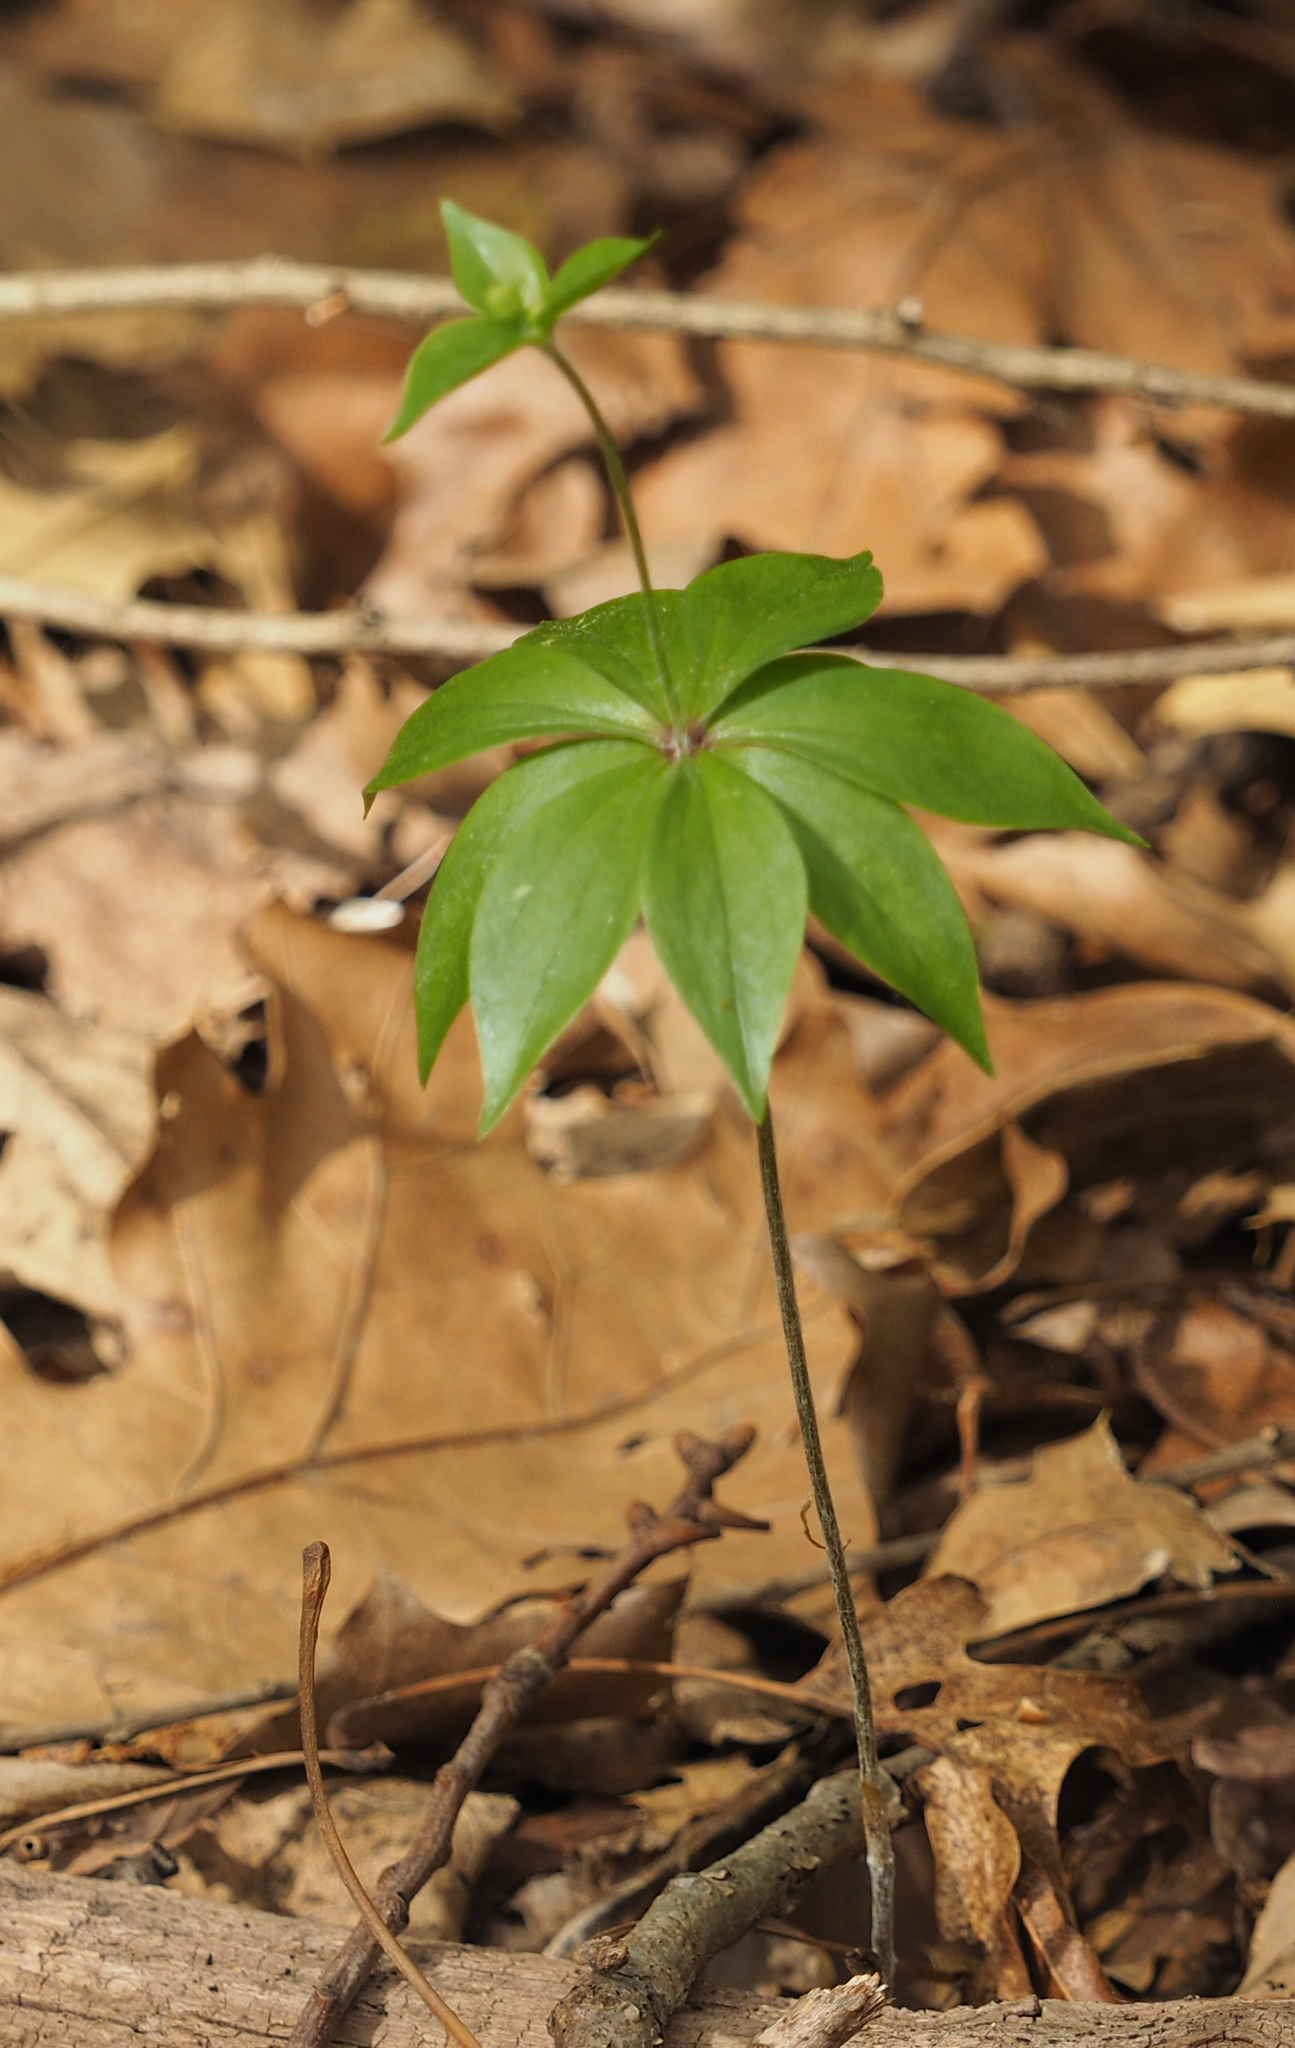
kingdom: Plantae
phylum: Tracheophyta
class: Liliopsida
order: Liliales
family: Liliaceae
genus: Medeola
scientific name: Medeola virginiana
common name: Indian cucumber-root
